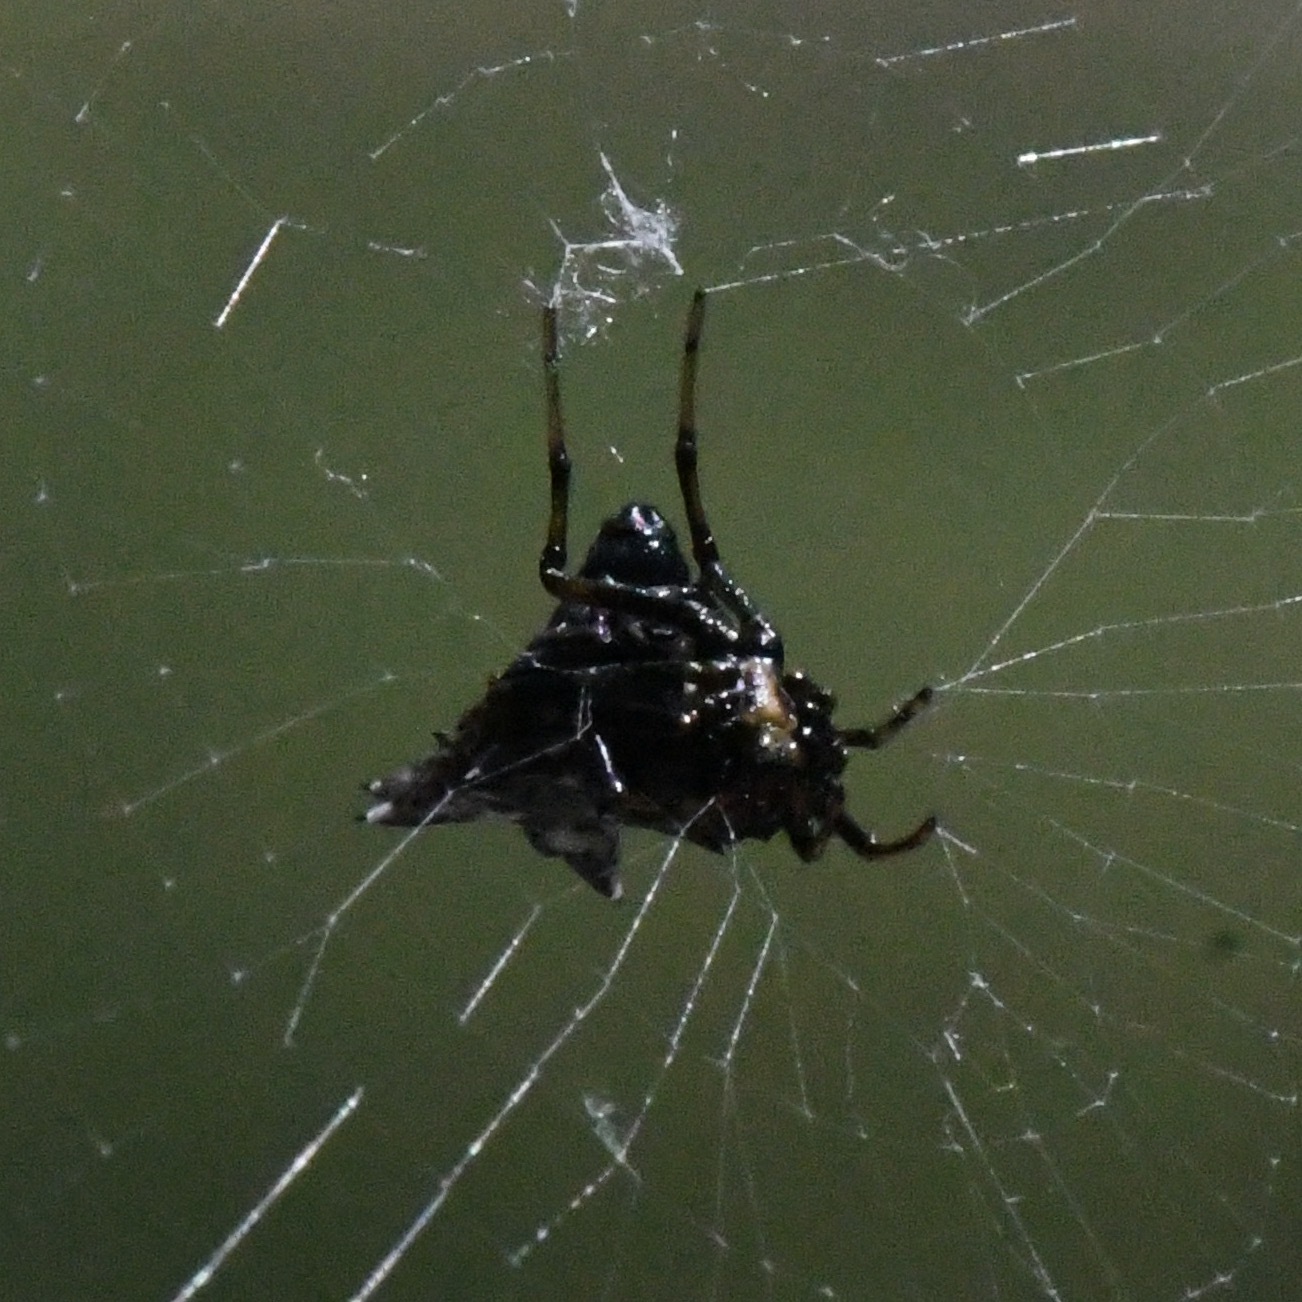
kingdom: Animalia
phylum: Arthropoda
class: Arachnida
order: Araneae
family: Araneidae
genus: Micrathena
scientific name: Micrathena gracilis
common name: Orb weavers
